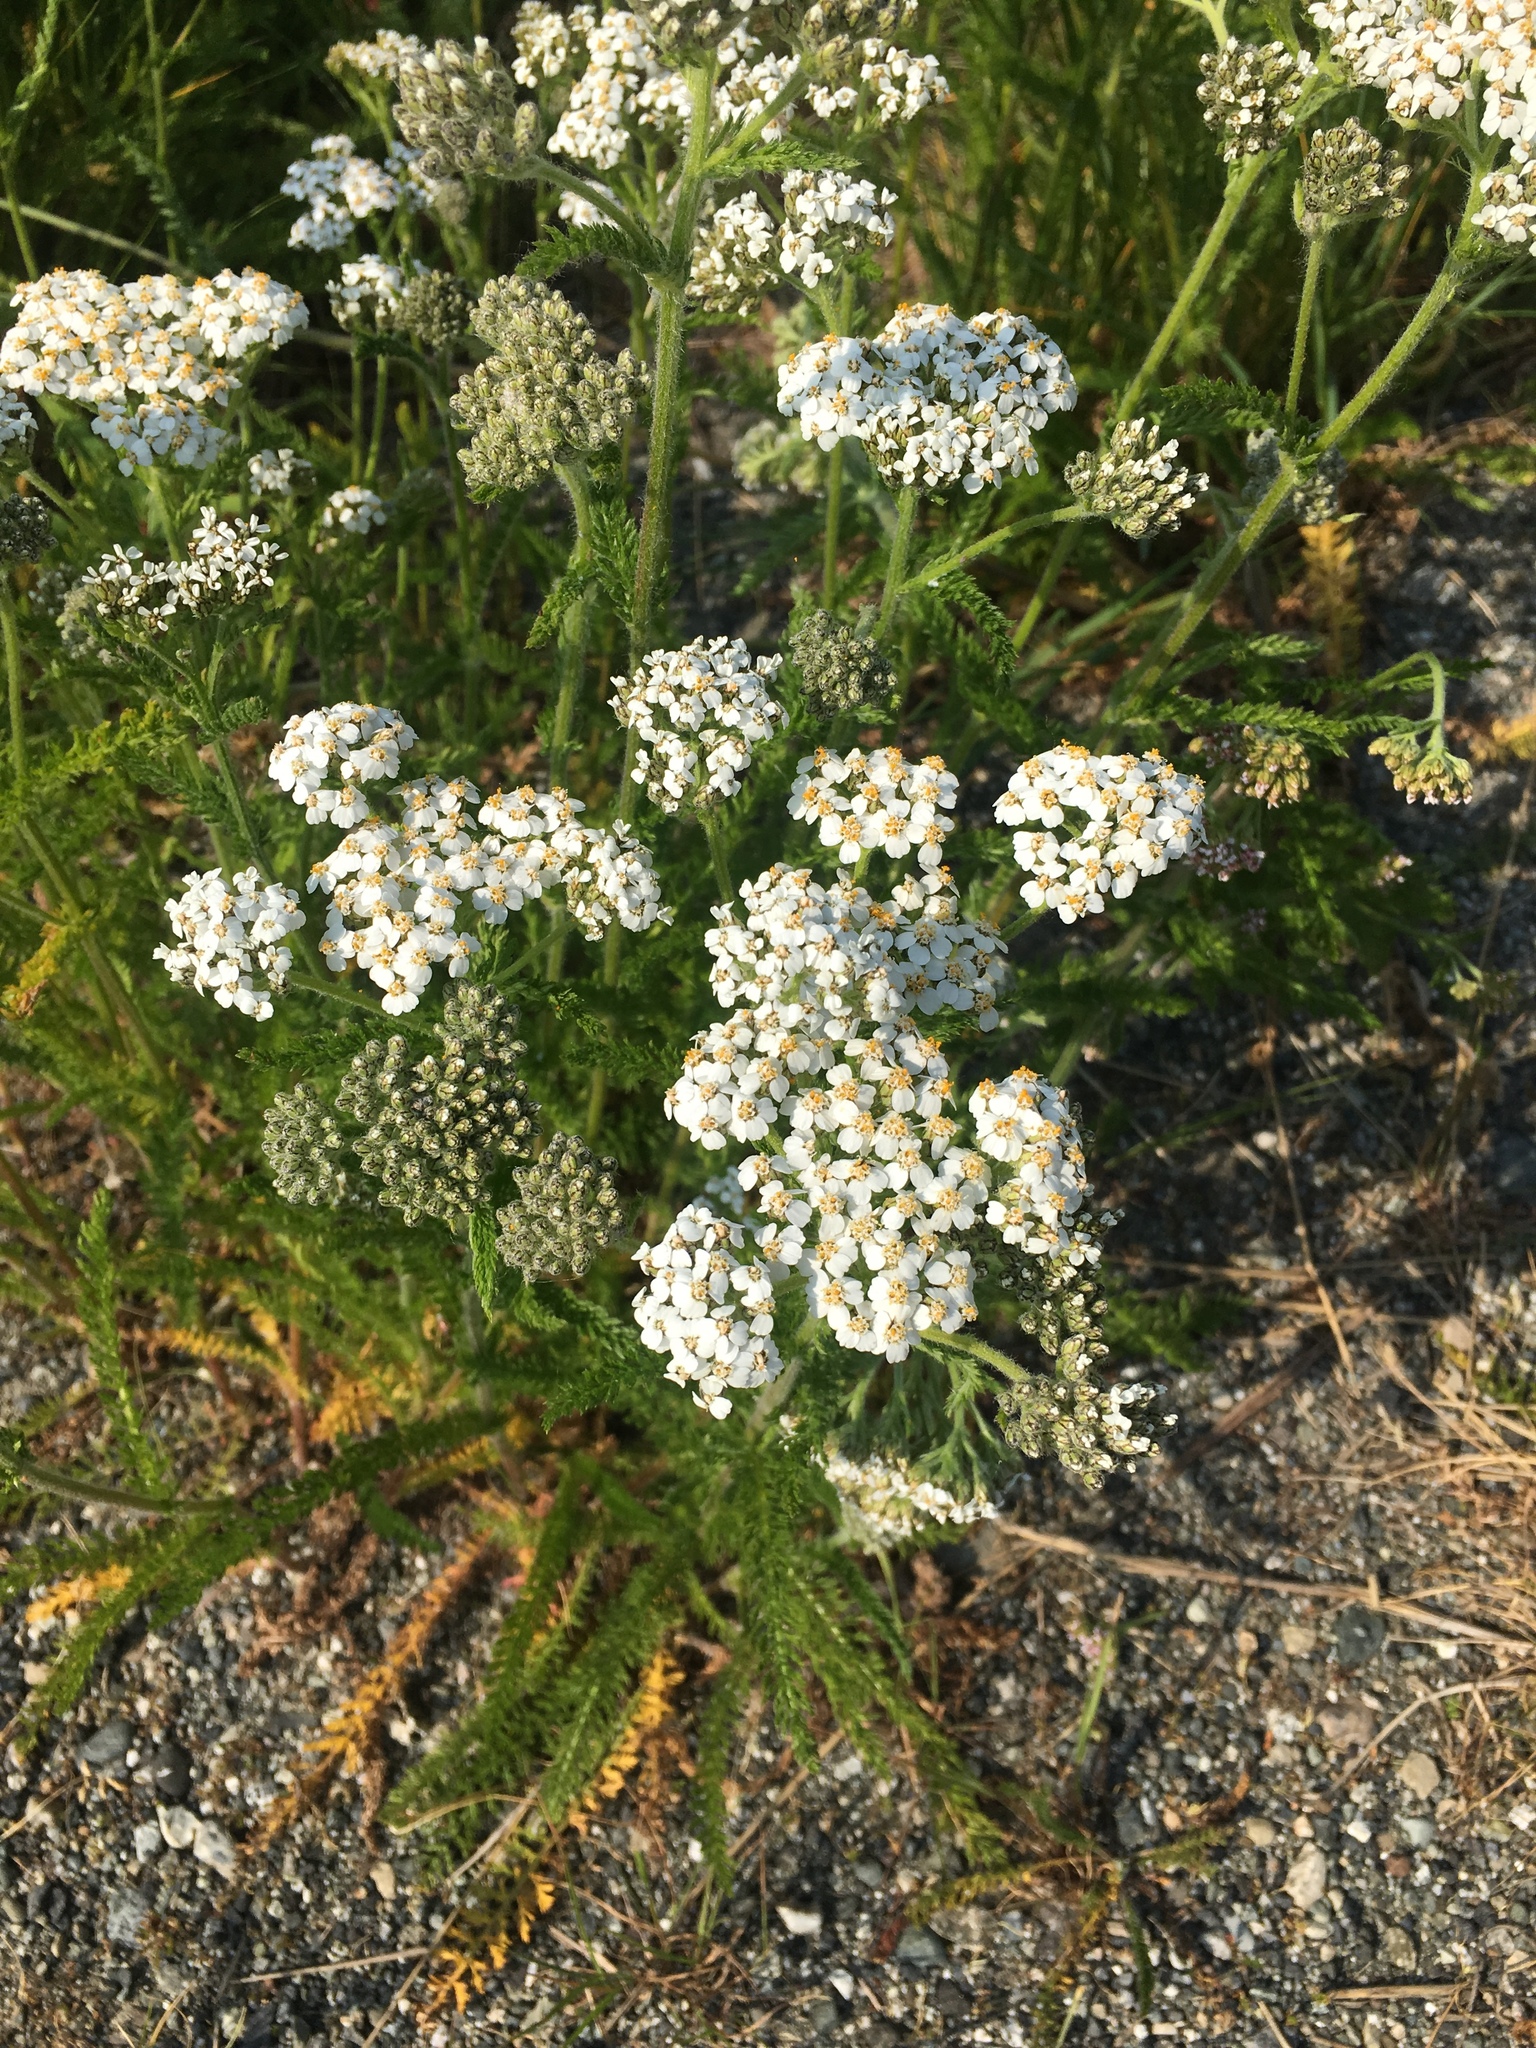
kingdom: Plantae
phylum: Tracheophyta
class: Magnoliopsida
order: Asterales
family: Asteraceae
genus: Achillea
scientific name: Achillea millefolium
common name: Yarrow
